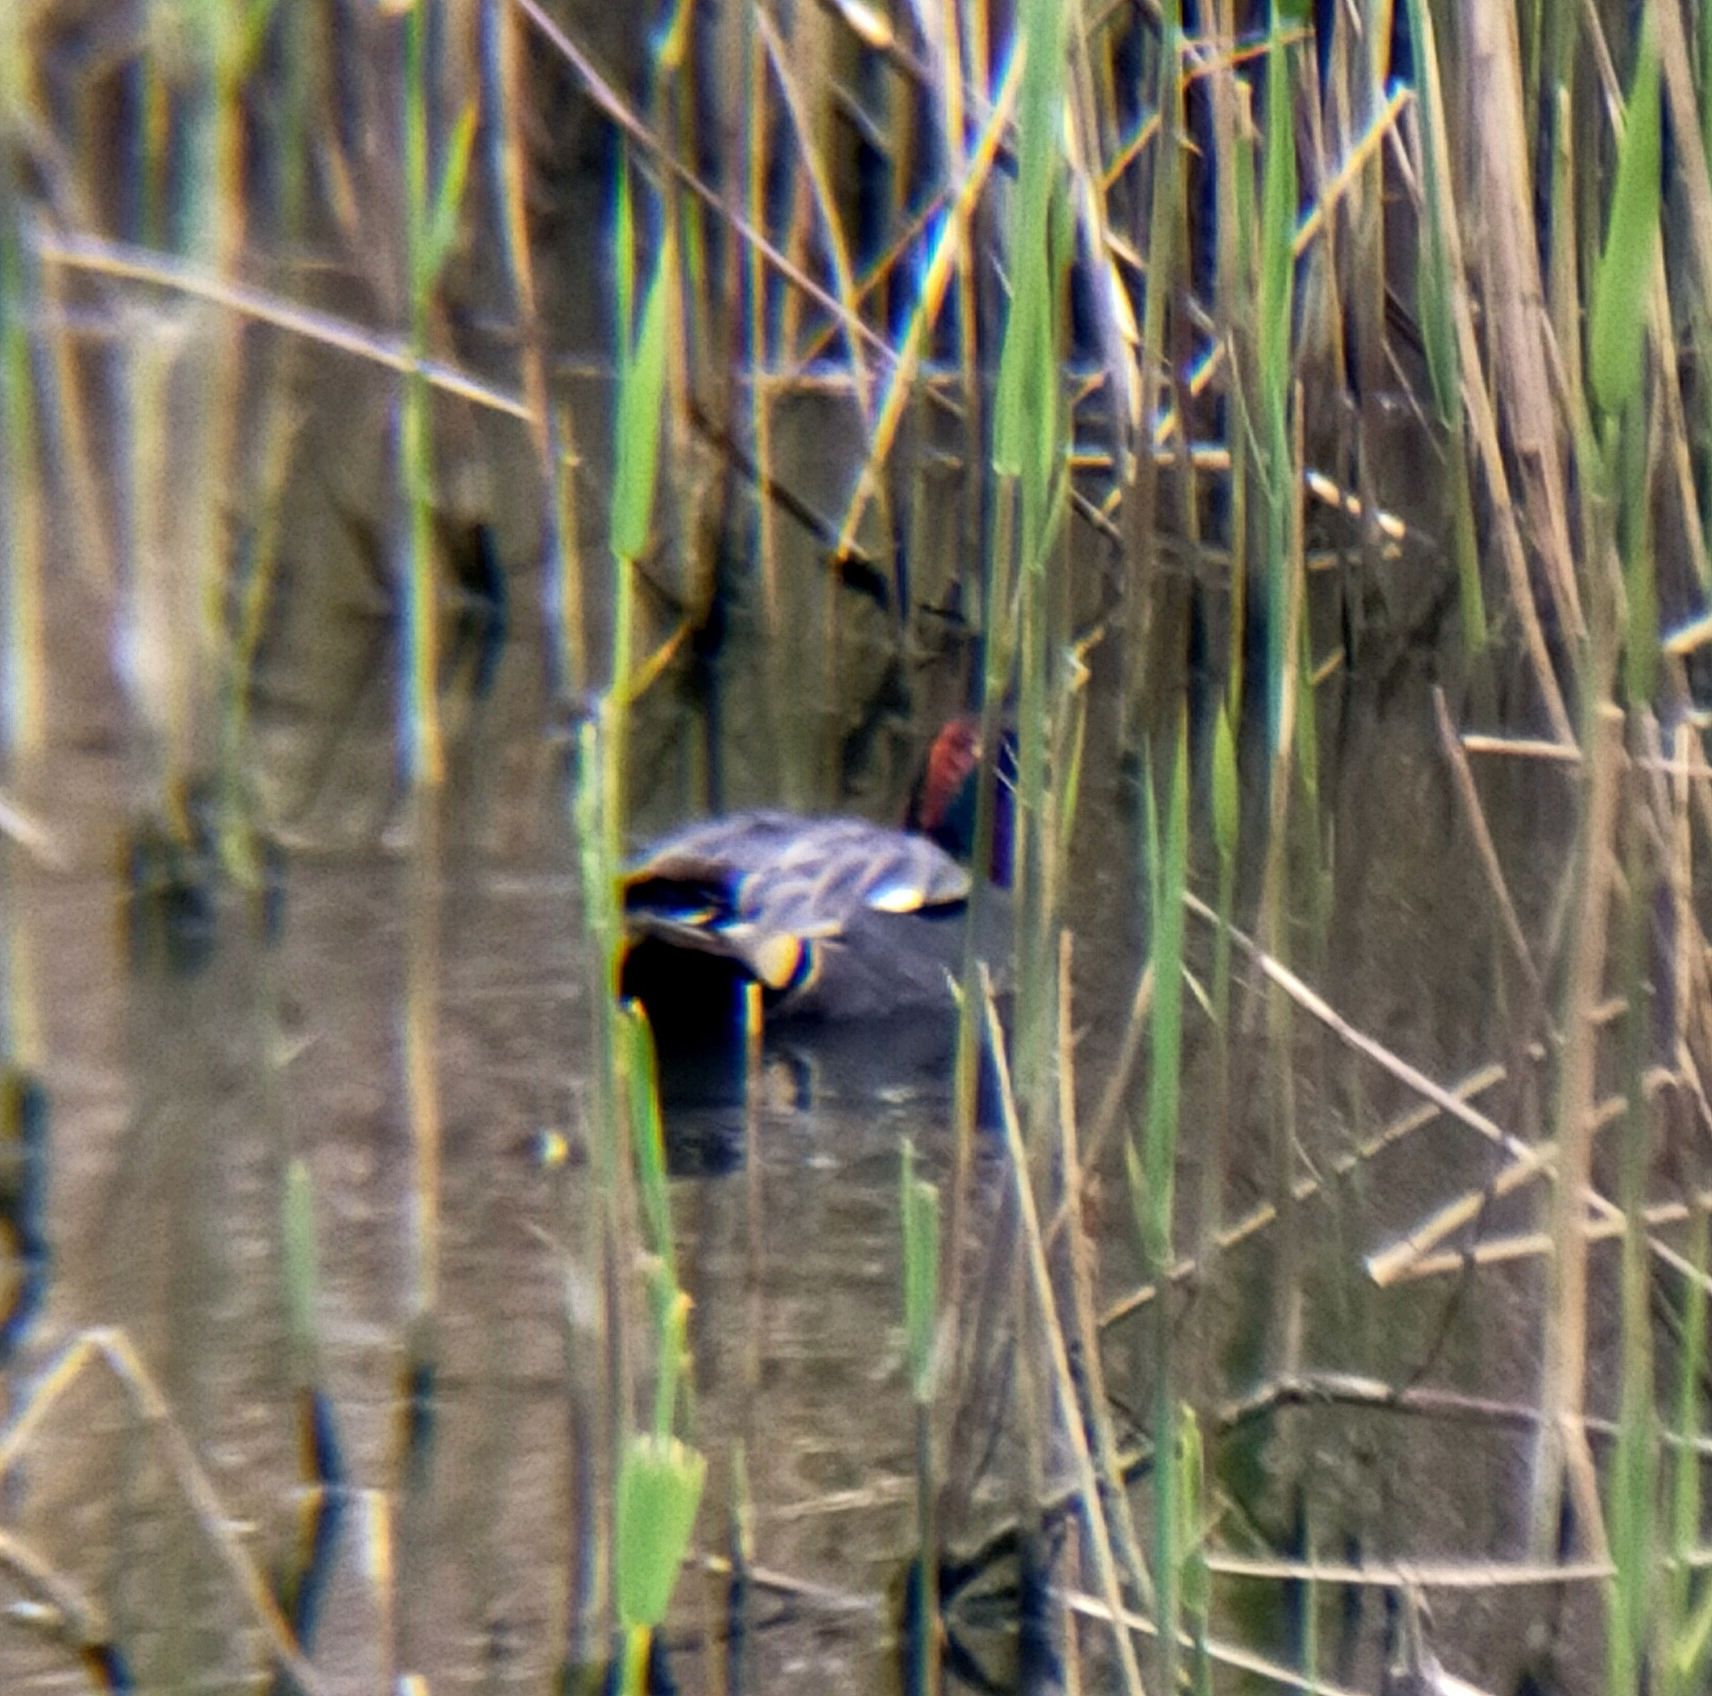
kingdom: Animalia
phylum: Chordata
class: Aves
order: Anseriformes
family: Anatidae
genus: Anas
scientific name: Anas crecca
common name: Eurasian teal
